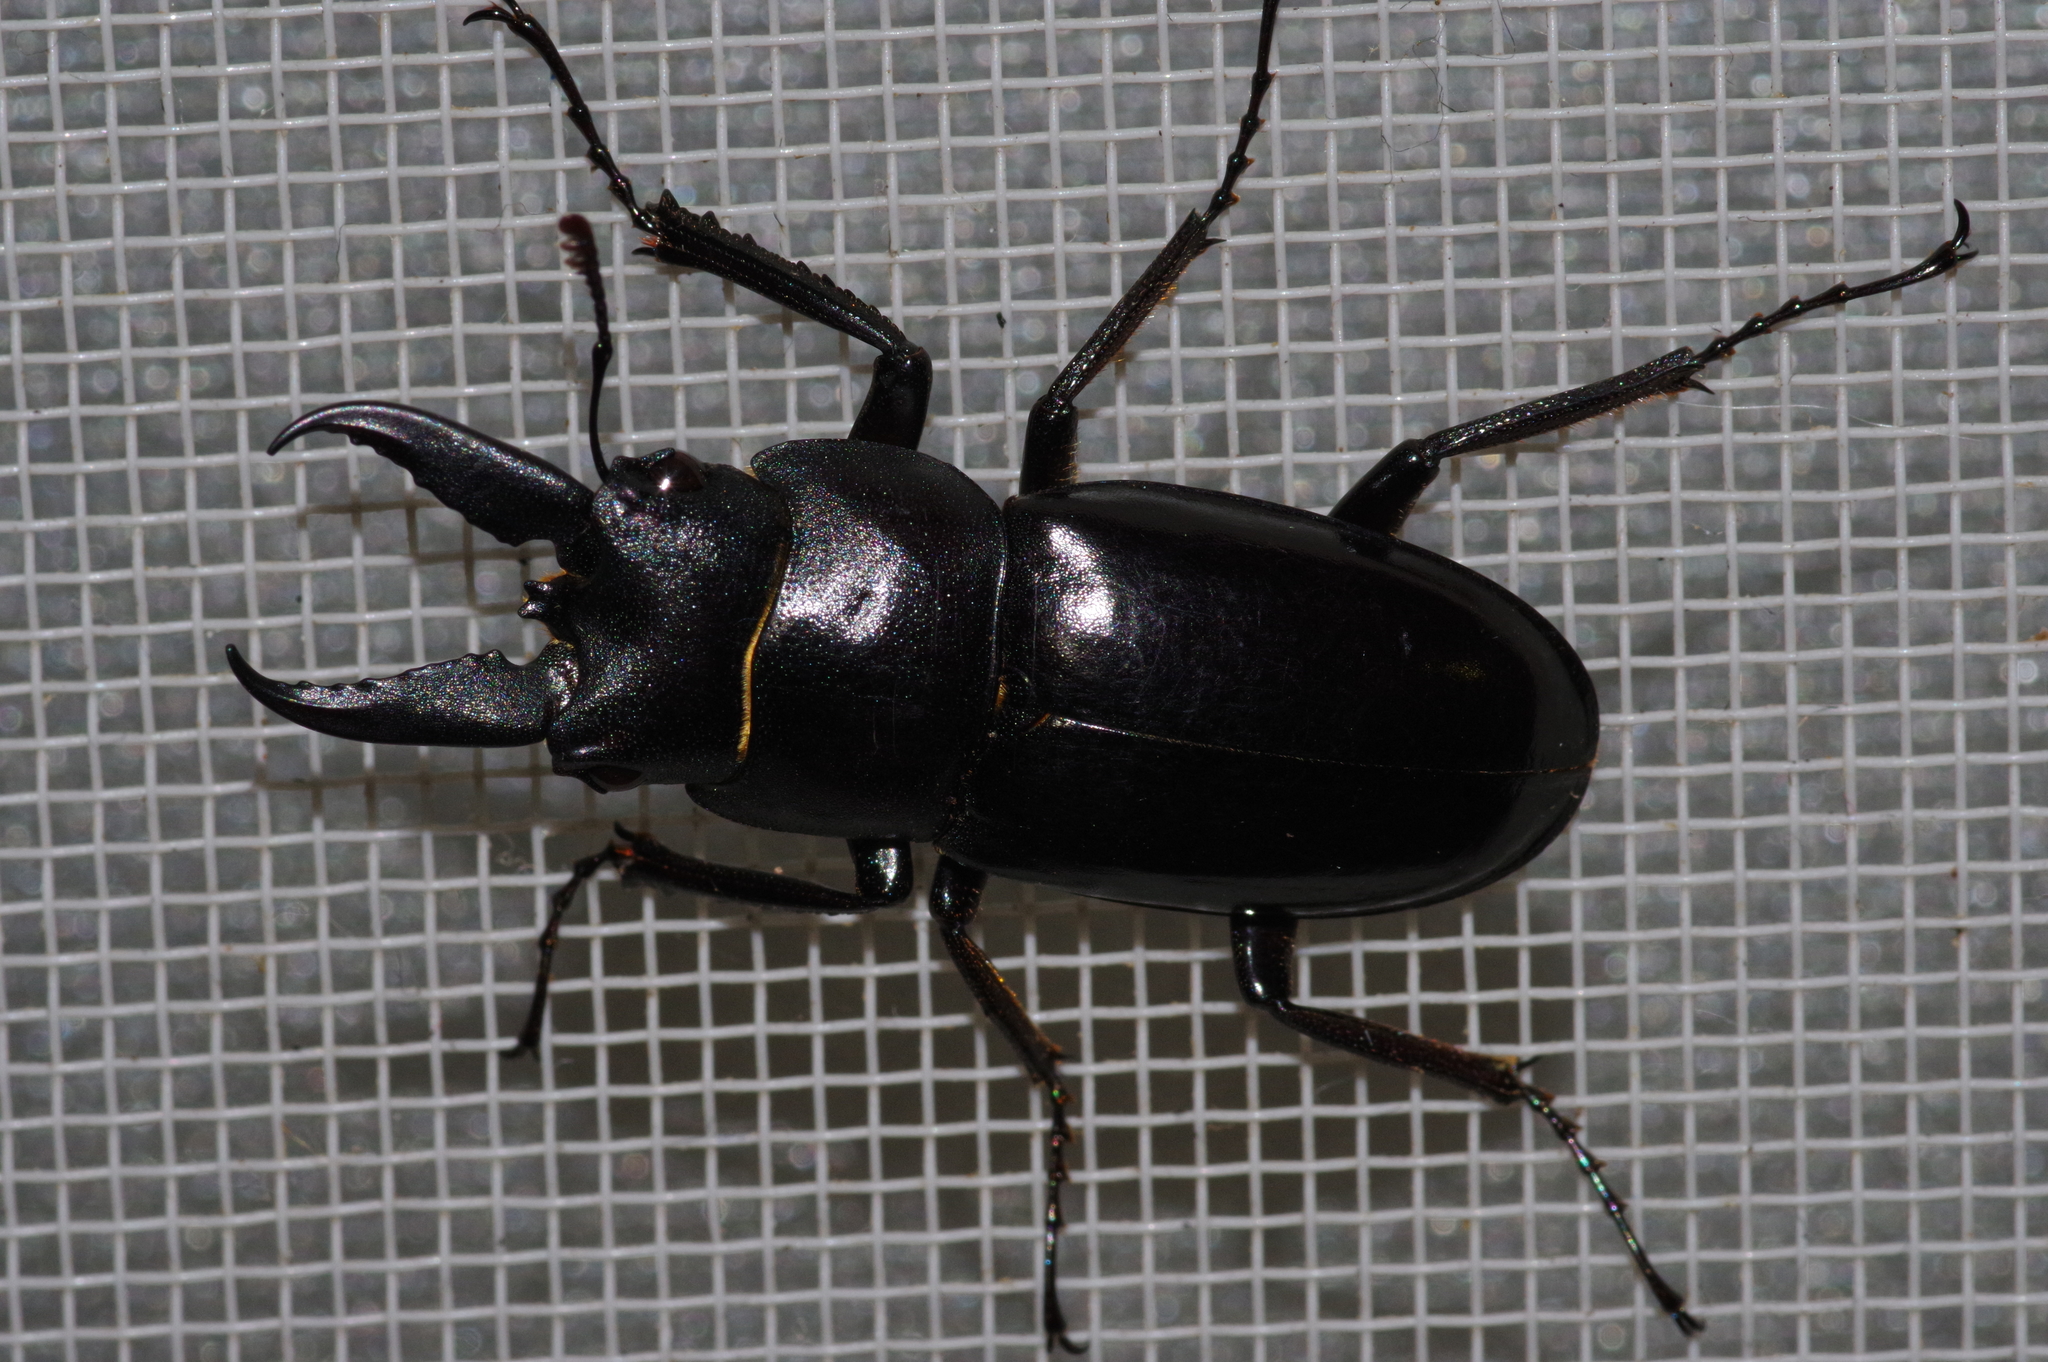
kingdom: Animalia
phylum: Arthropoda
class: Insecta
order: Coleoptera
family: Lucanidae
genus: Prosopocoilus
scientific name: Prosopocoilus dissimilis
